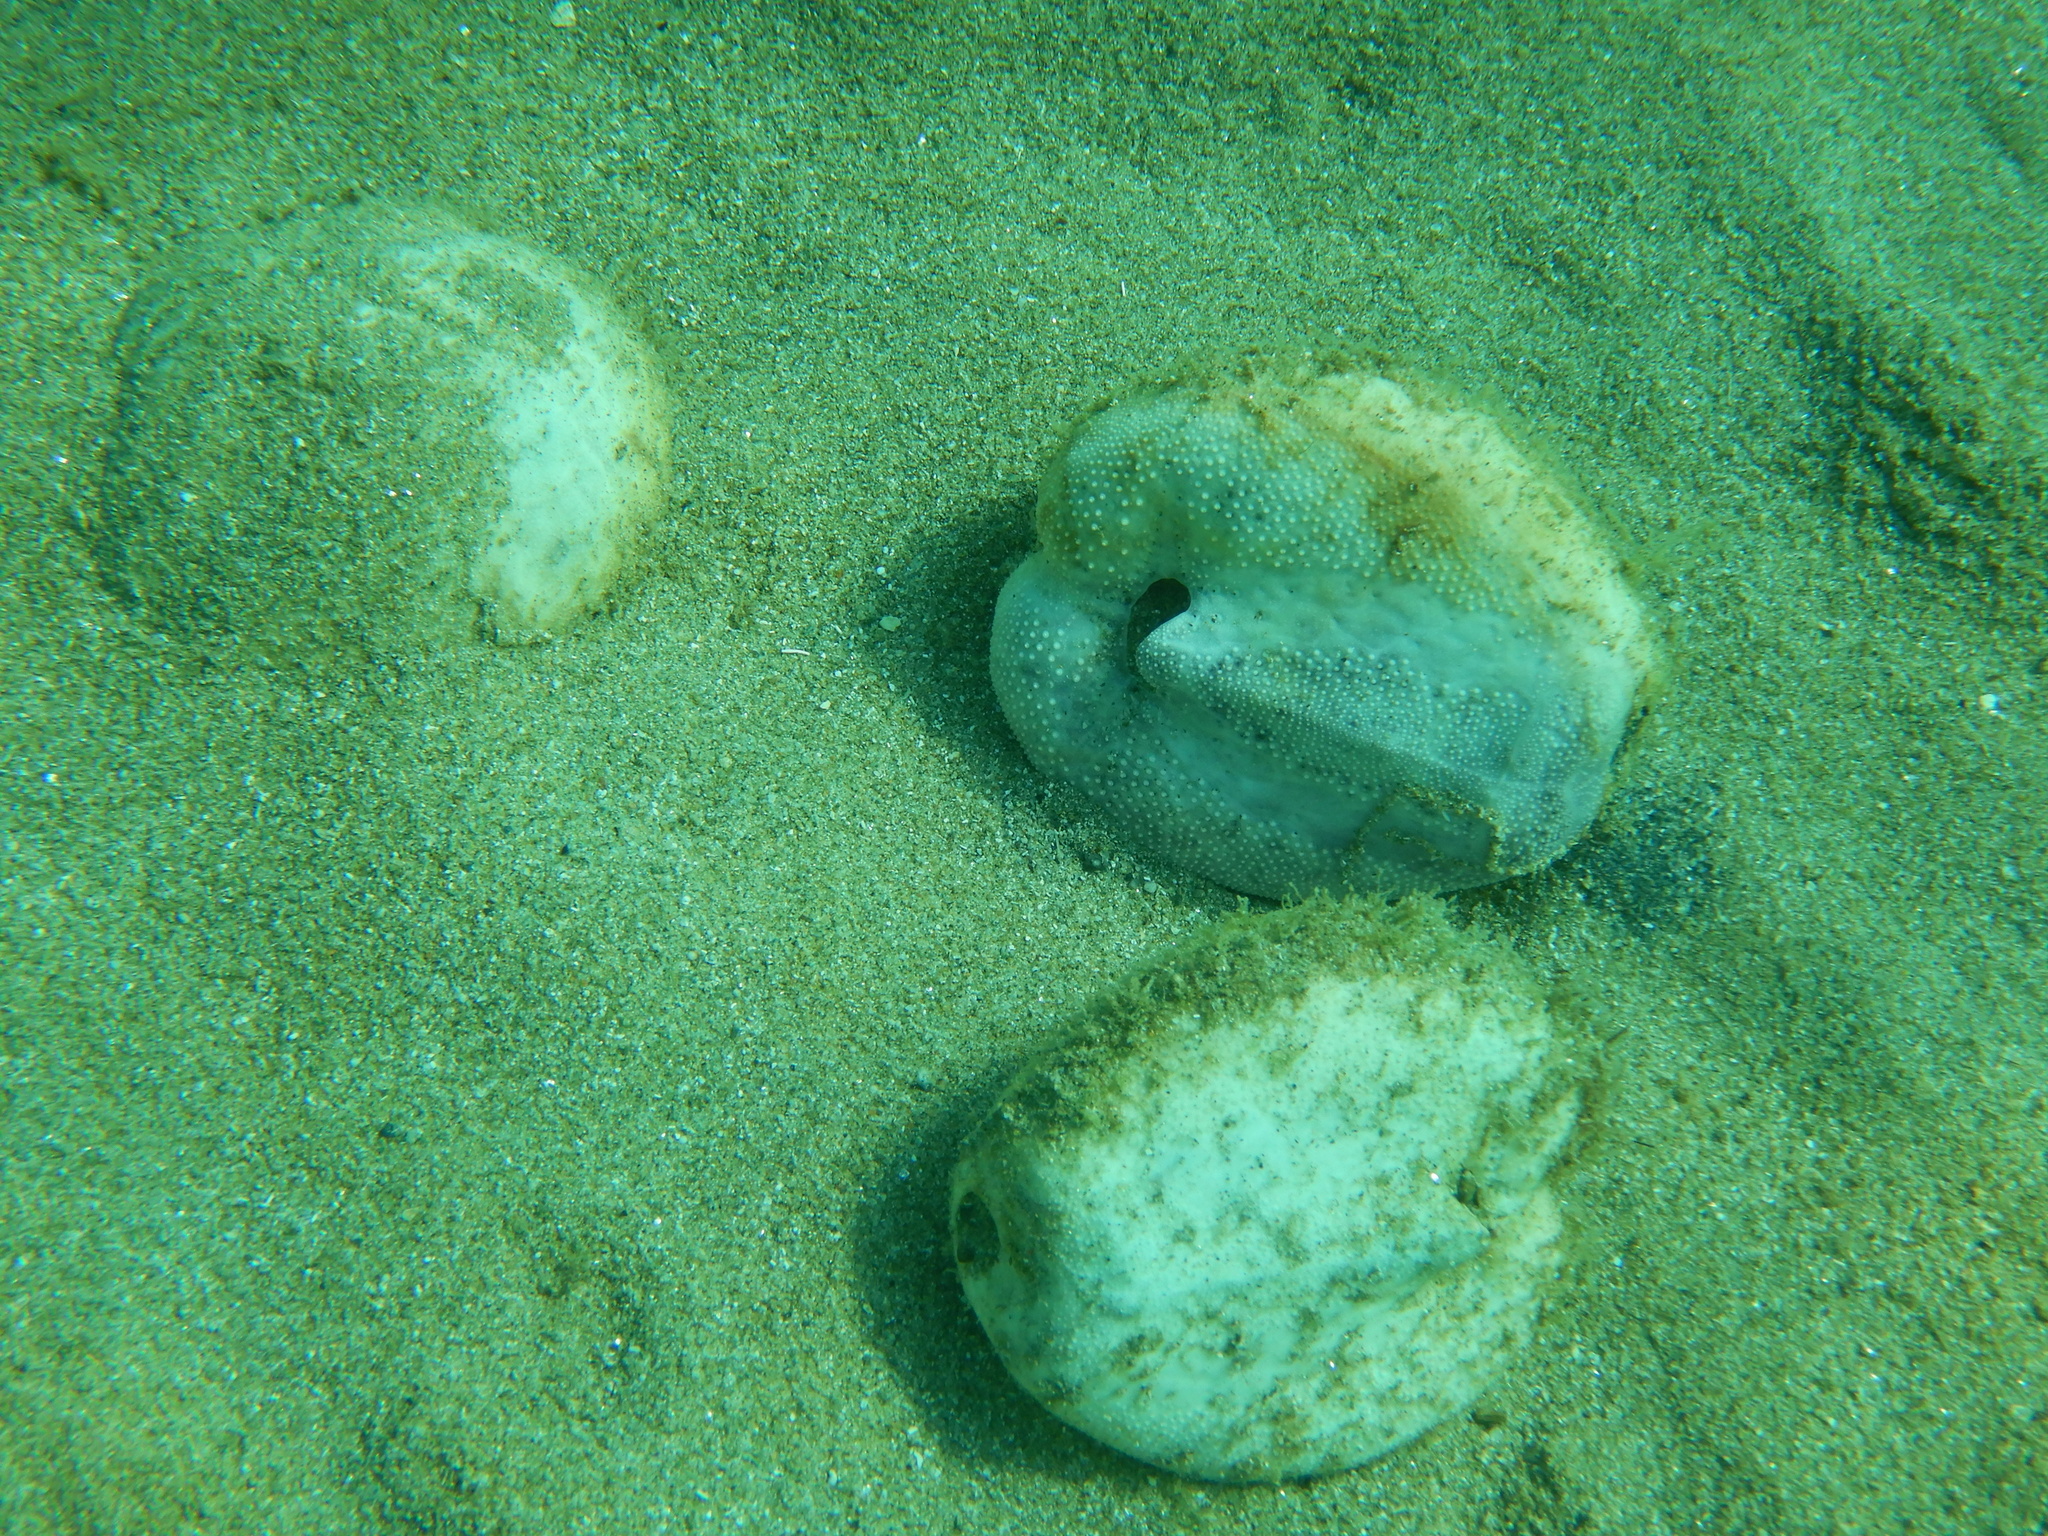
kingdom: Animalia
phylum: Echinodermata
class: Echinoidea
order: Spatangoida
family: Spatangidae
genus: Spatangus
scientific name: Spatangus purpureus
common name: Purple heart urchin
